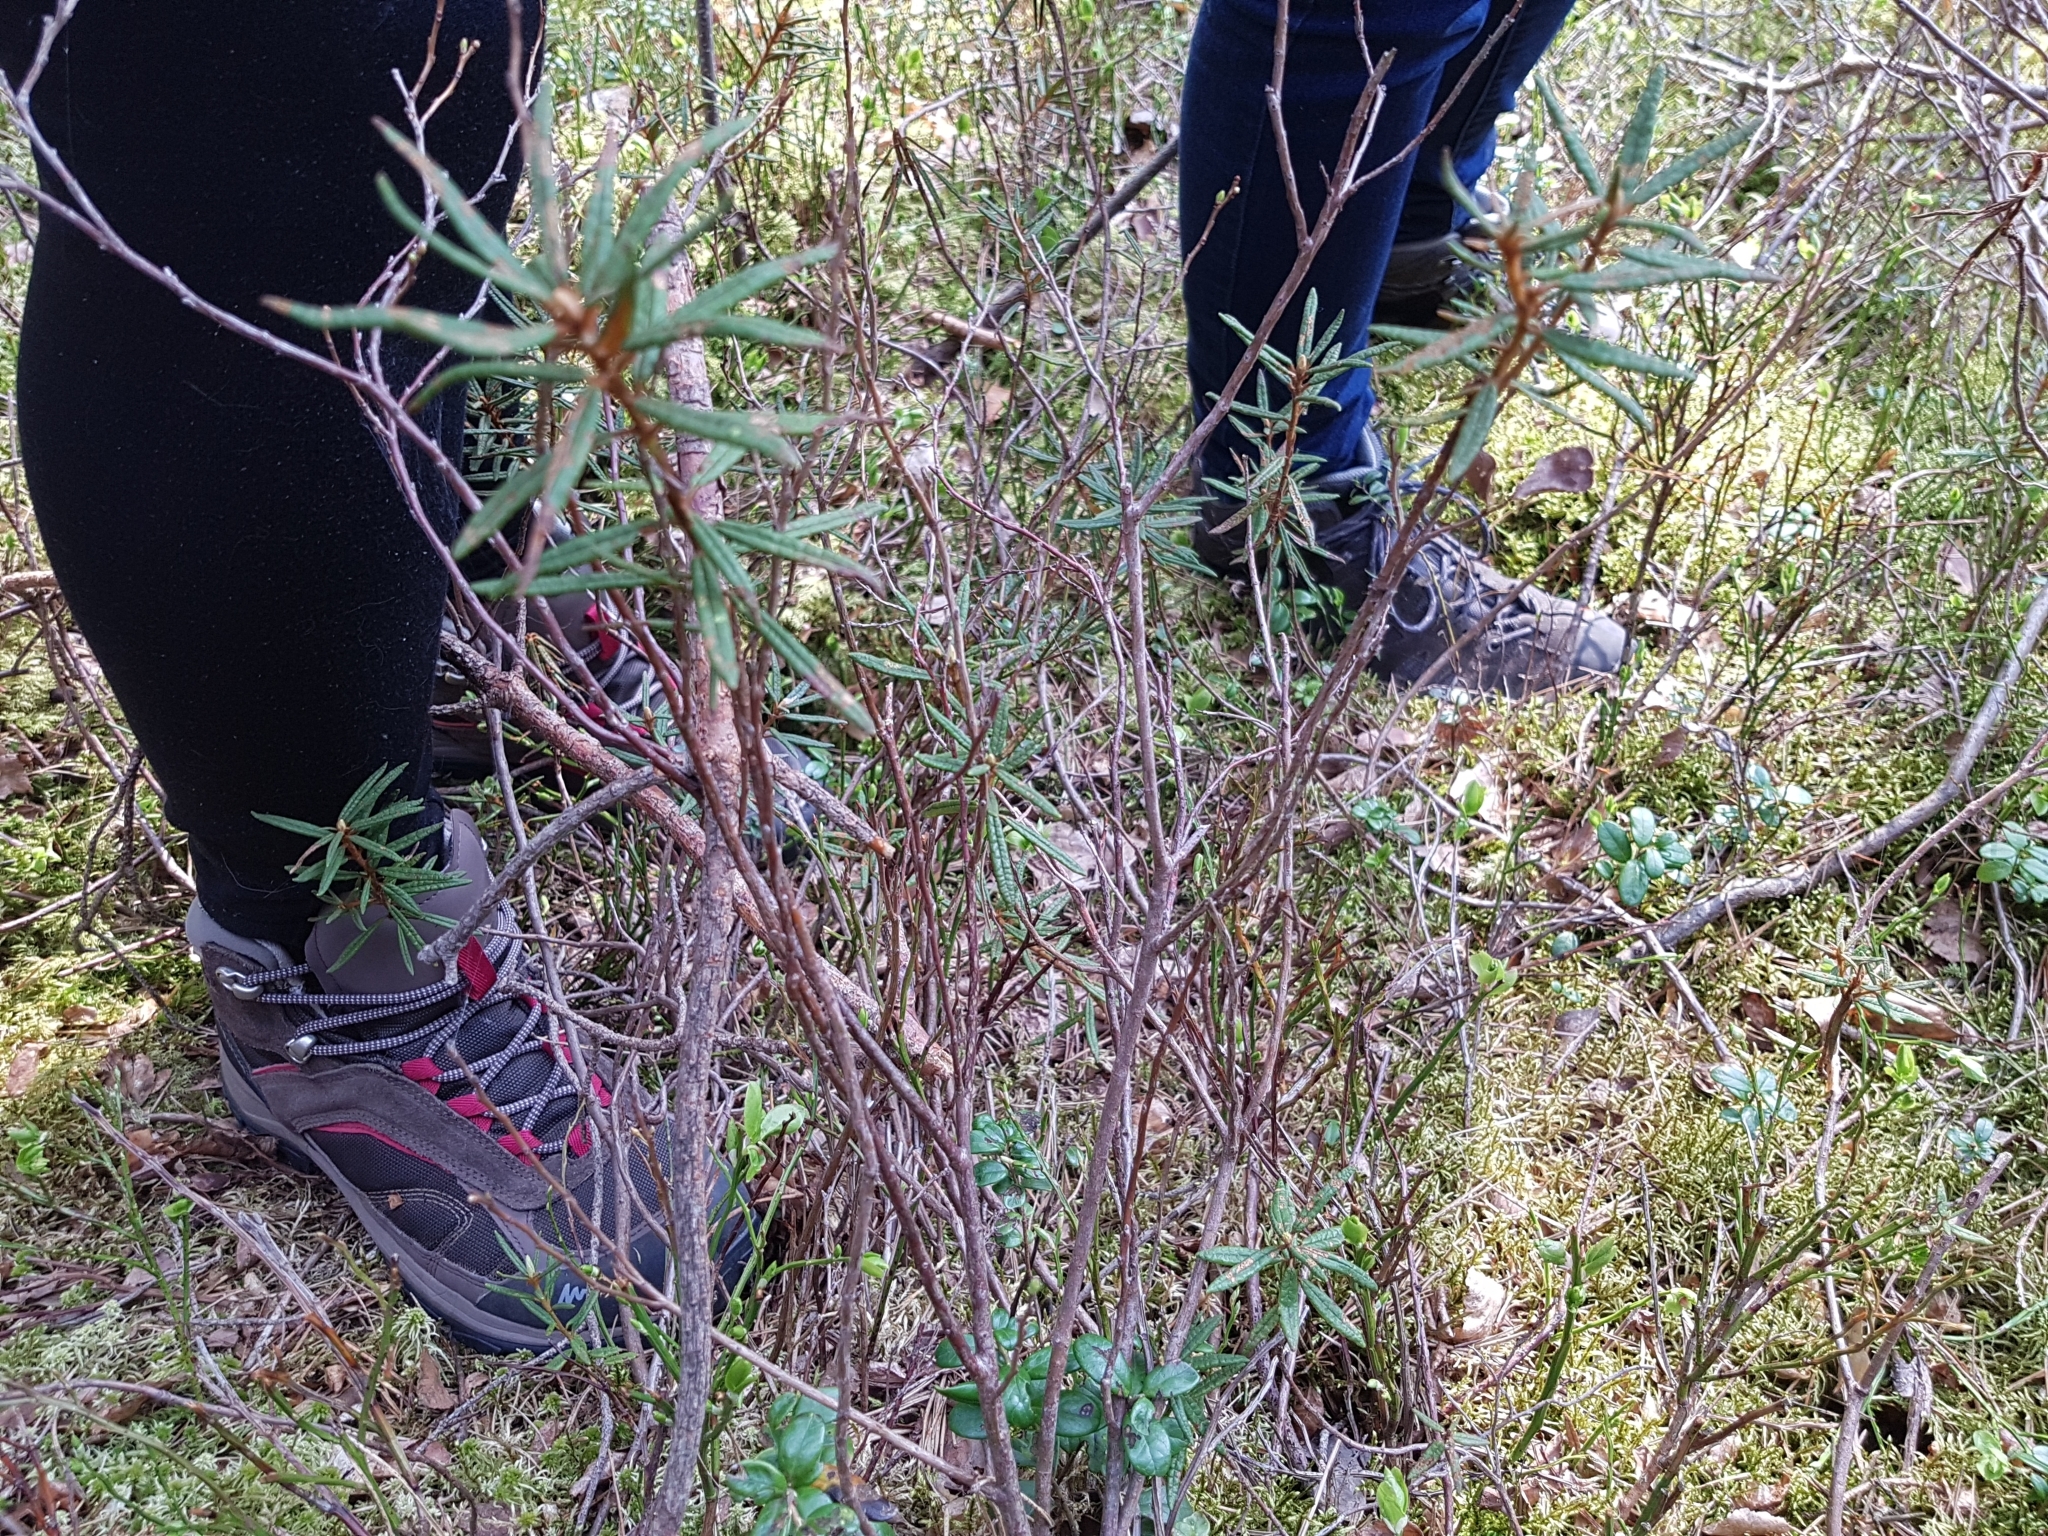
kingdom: Plantae
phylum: Tracheophyta
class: Magnoliopsida
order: Ericales
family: Ericaceae
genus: Rhododendron
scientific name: Rhododendron tomentosum
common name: Marsh labrador tea
